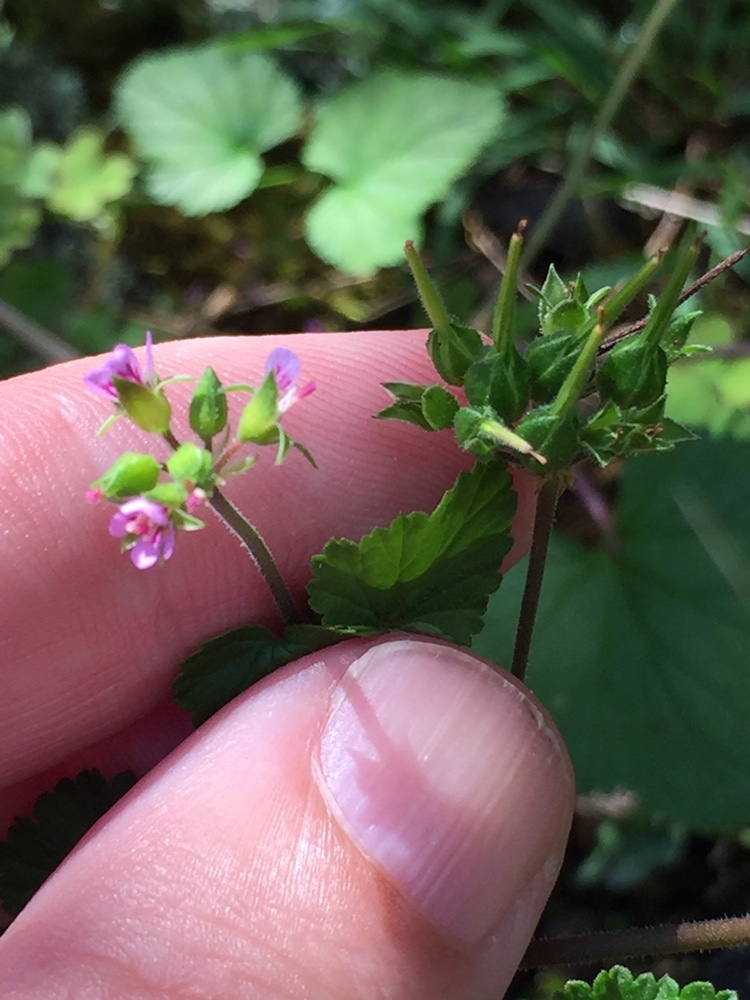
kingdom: Plantae
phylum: Tracheophyta
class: Magnoliopsida
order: Geraniales
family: Geraniaceae
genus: Pelargonium
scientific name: Pelargonium inodorum
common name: Kopata geranium
